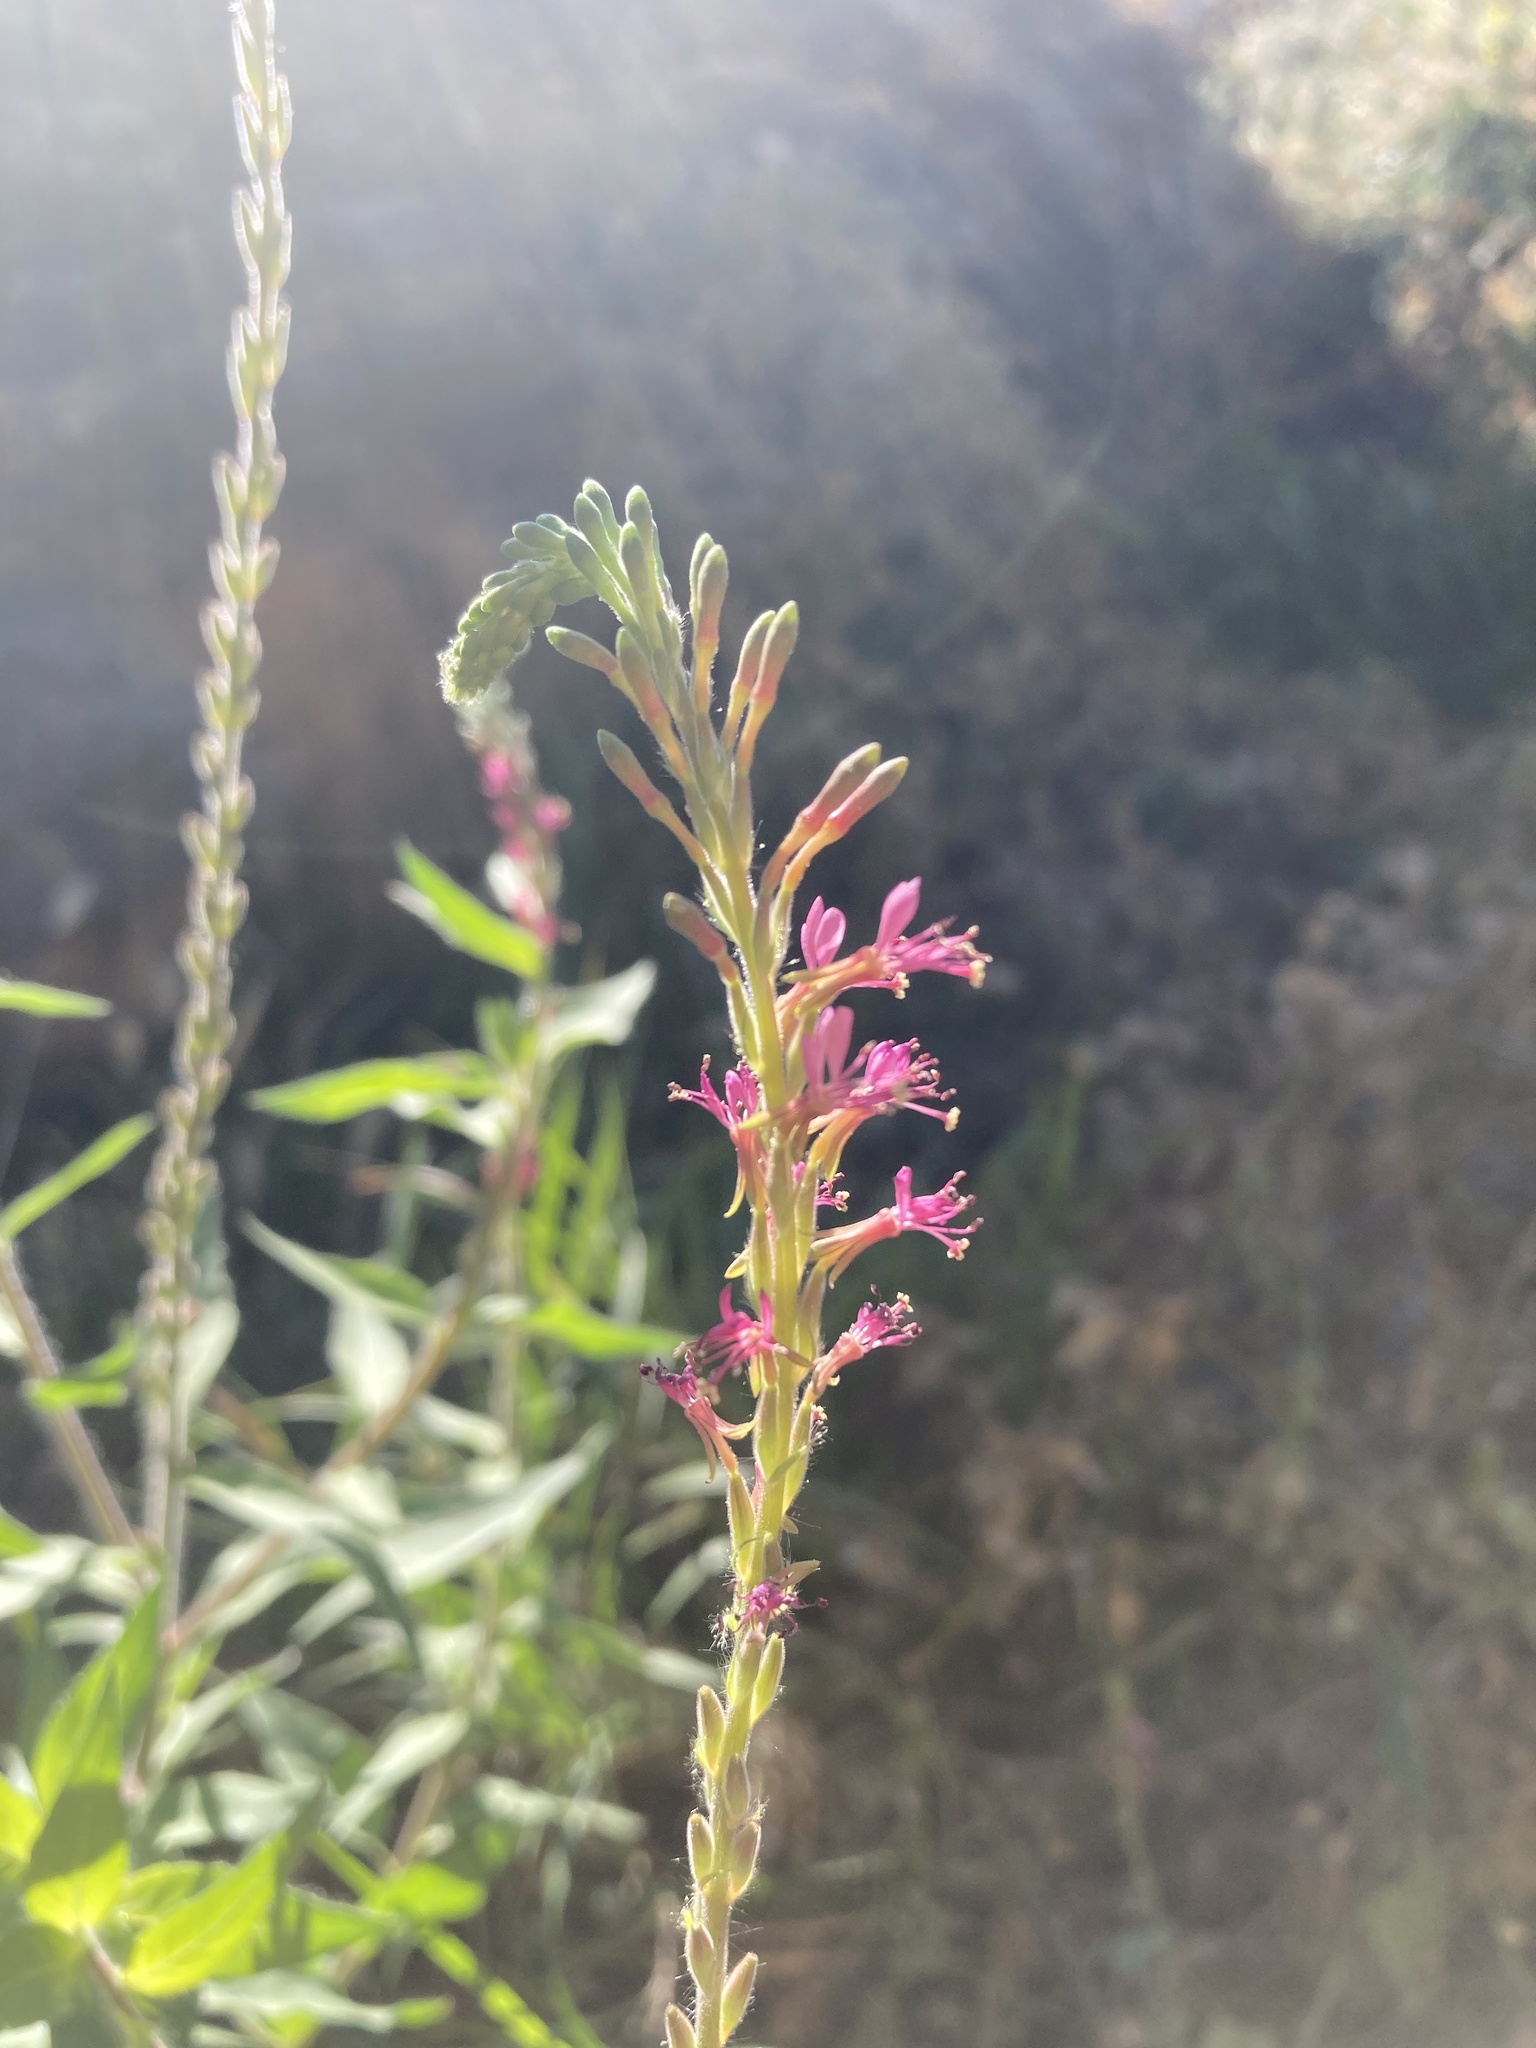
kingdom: Plantae
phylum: Tracheophyta
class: Magnoliopsida
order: Myrtales
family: Onagraceae
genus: Oenothera
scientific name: Oenothera curtiflora
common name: Velvetweed
